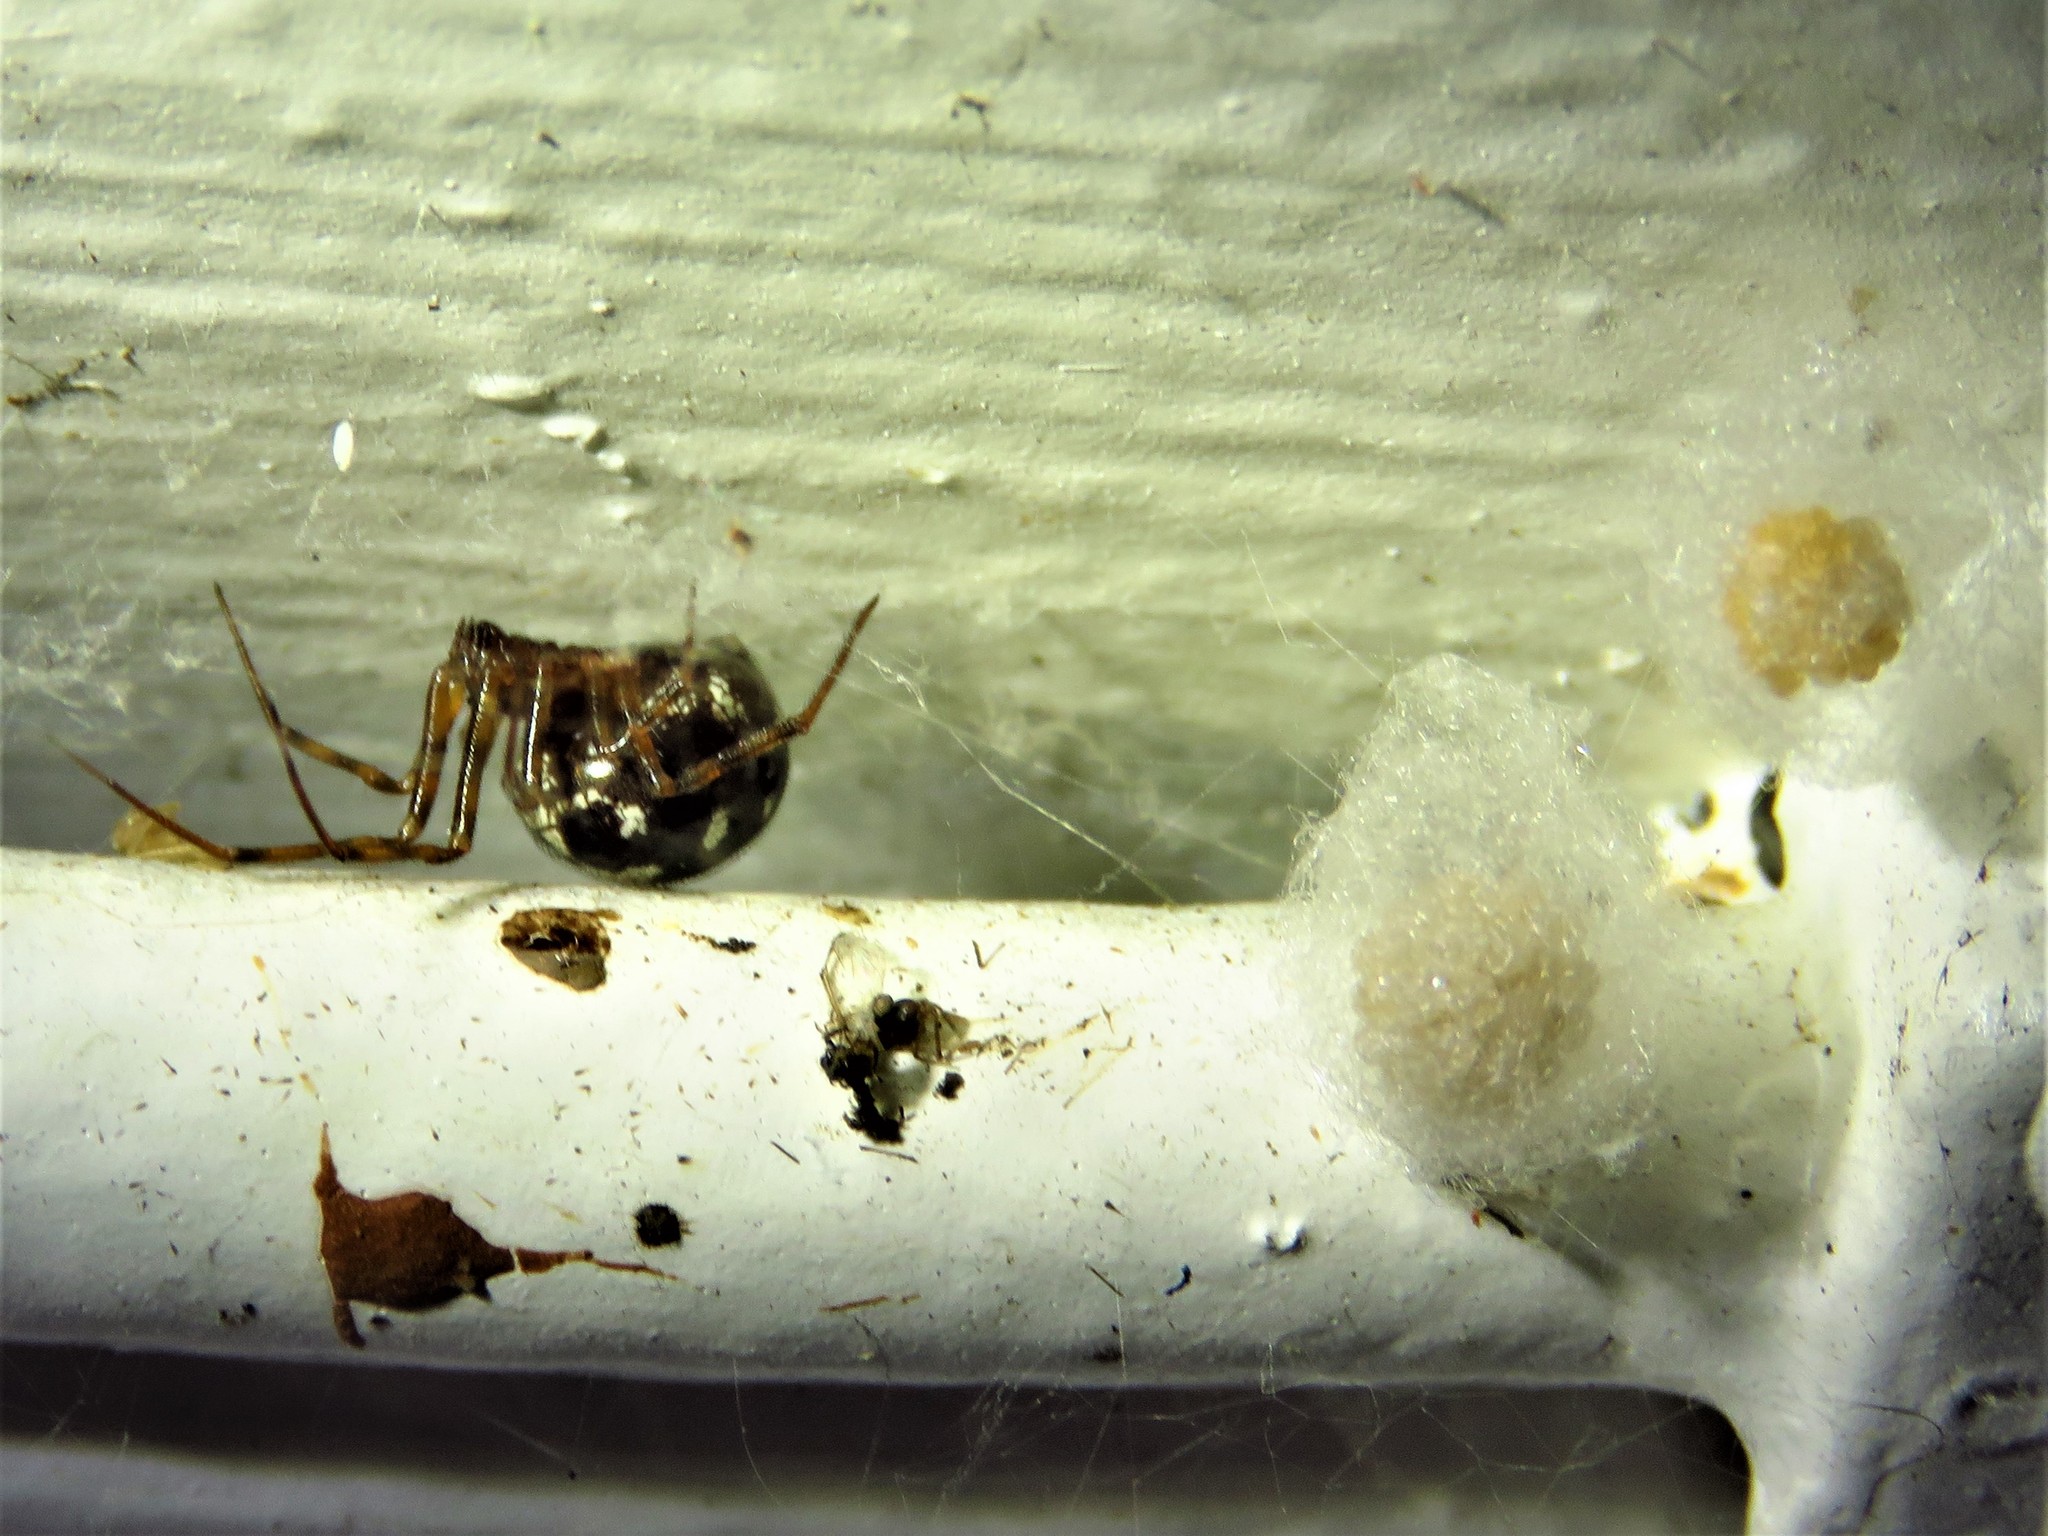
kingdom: Animalia
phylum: Arthropoda
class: Arachnida
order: Araneae
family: Theridiidae
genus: Steatoda
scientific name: Steatoda triangulosa
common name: Triangulate bud spider
